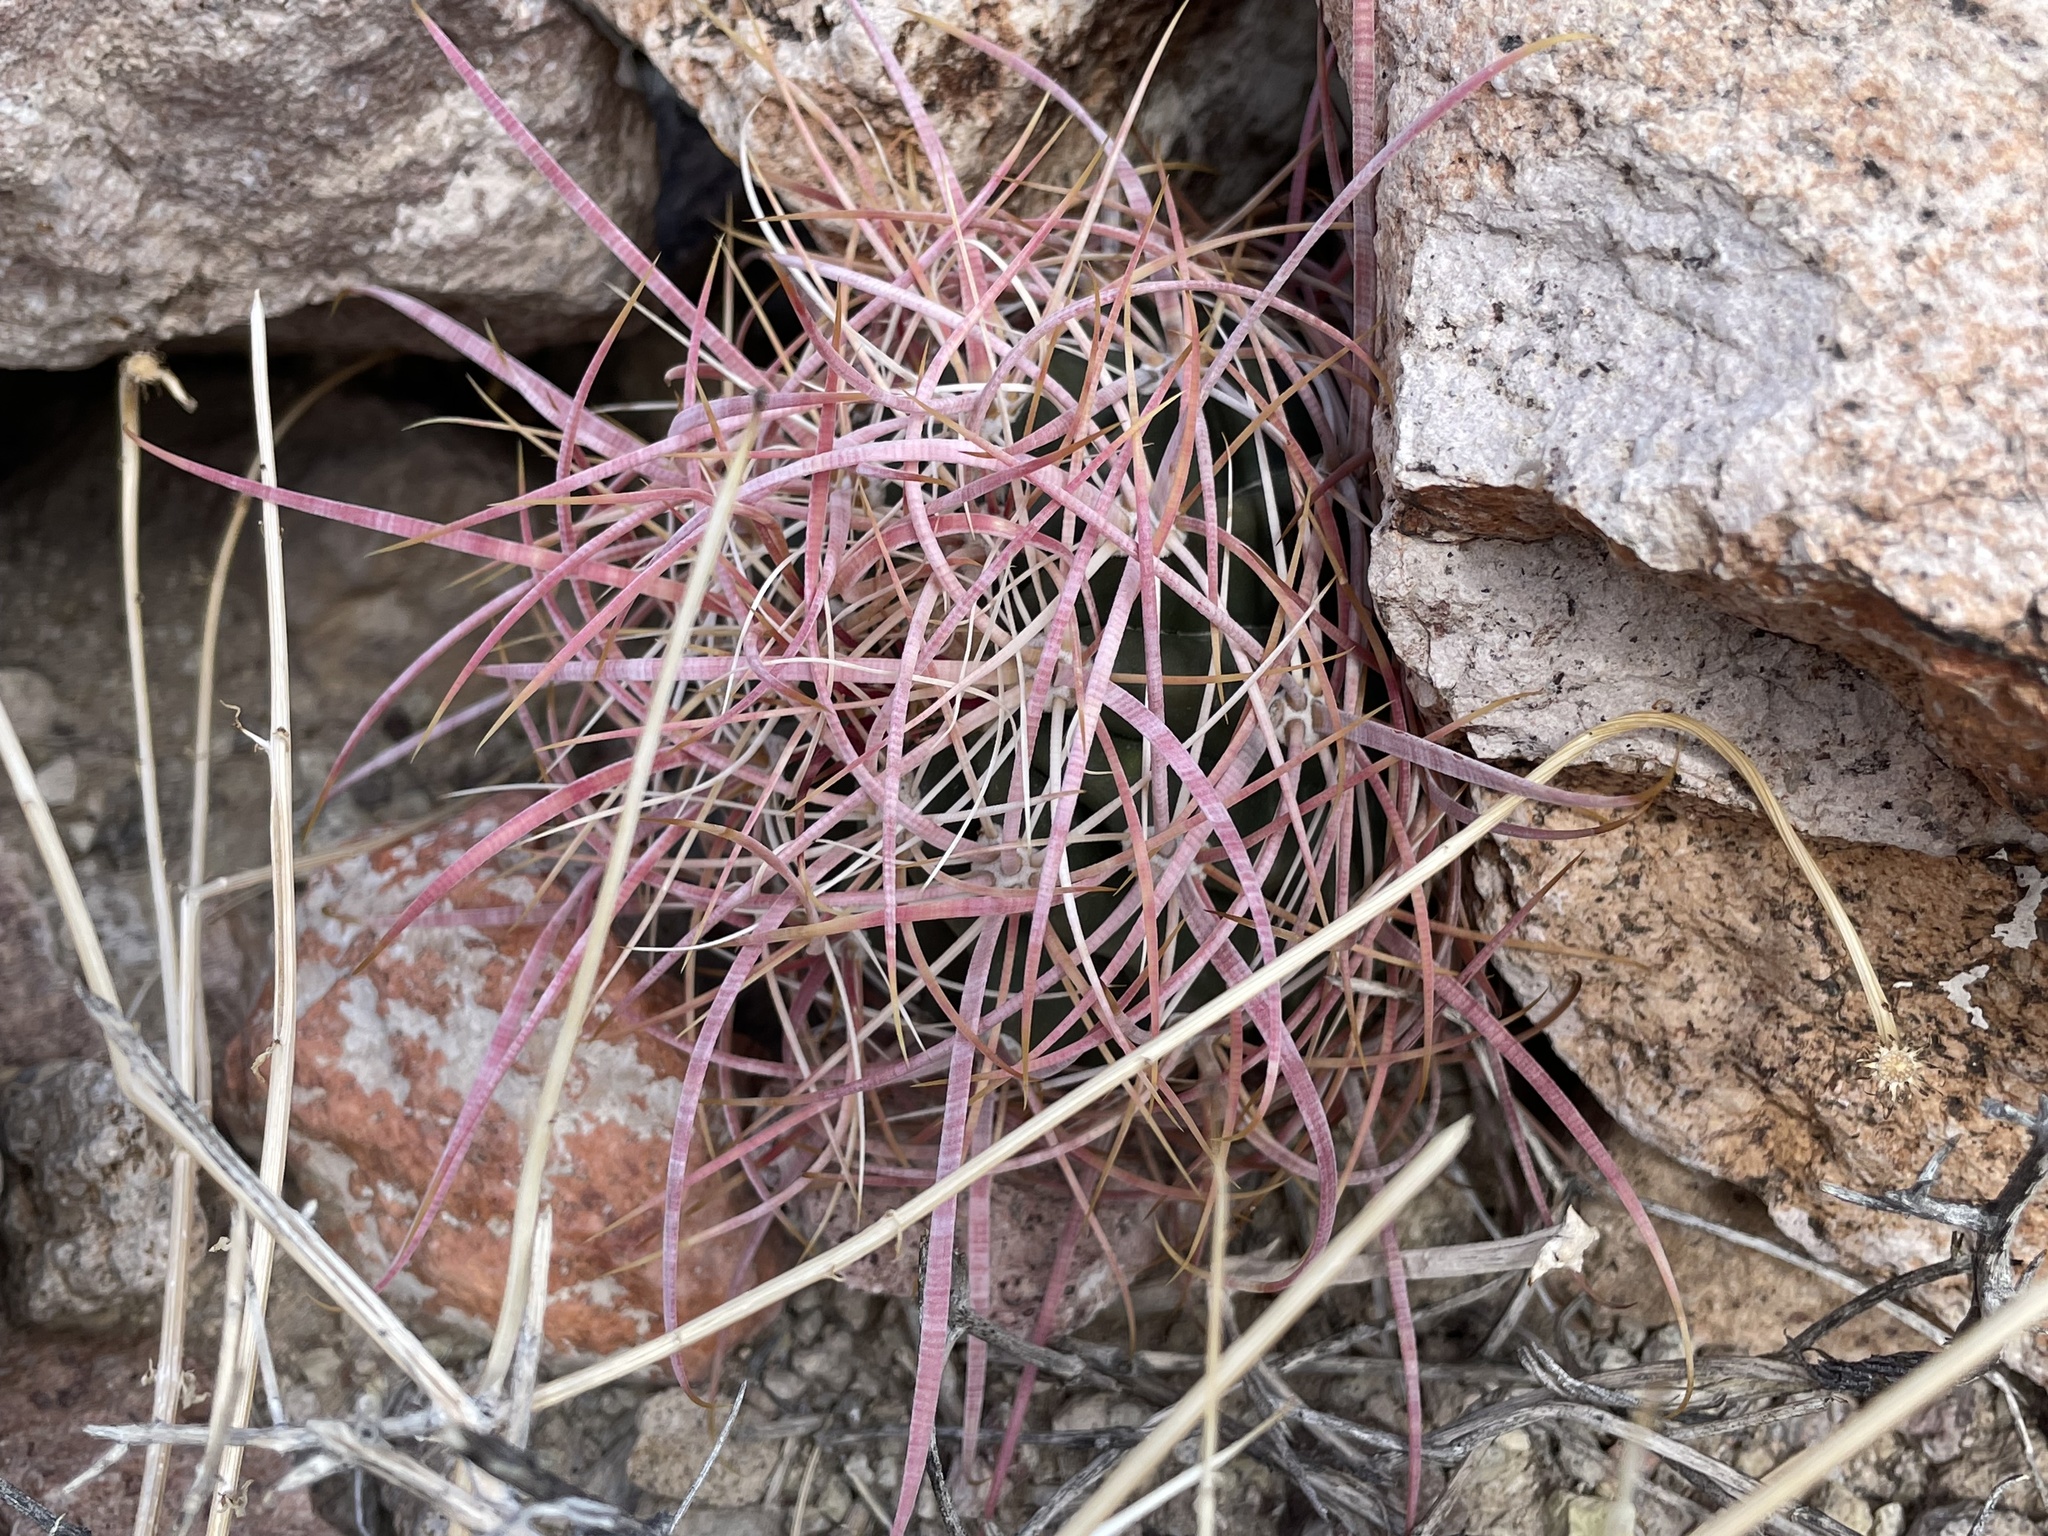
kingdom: Plantae
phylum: Tracheophyta
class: Magnoliopsida
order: Caryophyllales
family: Cactaceae
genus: Ferocactus
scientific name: Ferocactus cylindraceus
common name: California barrel cactus
